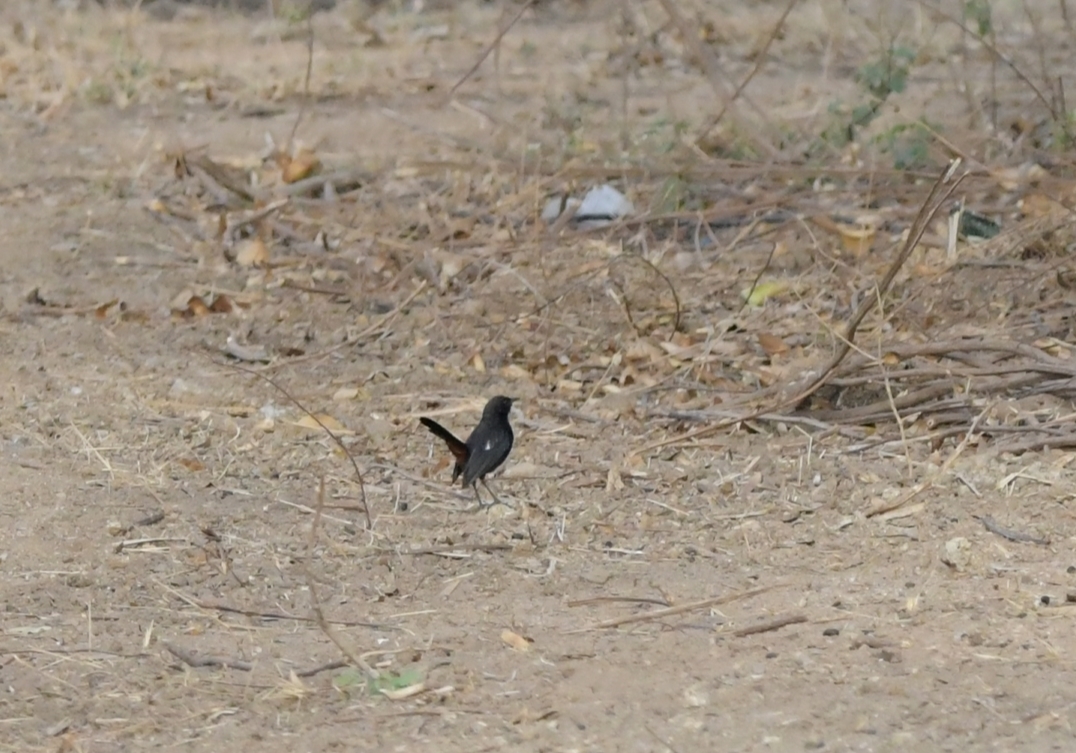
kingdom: Animalia
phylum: Chordata
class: Aves
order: Passeriformes
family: Muscicapidae
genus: Saxicoloides
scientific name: Saxicoloides fulicatus
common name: Indian robin
